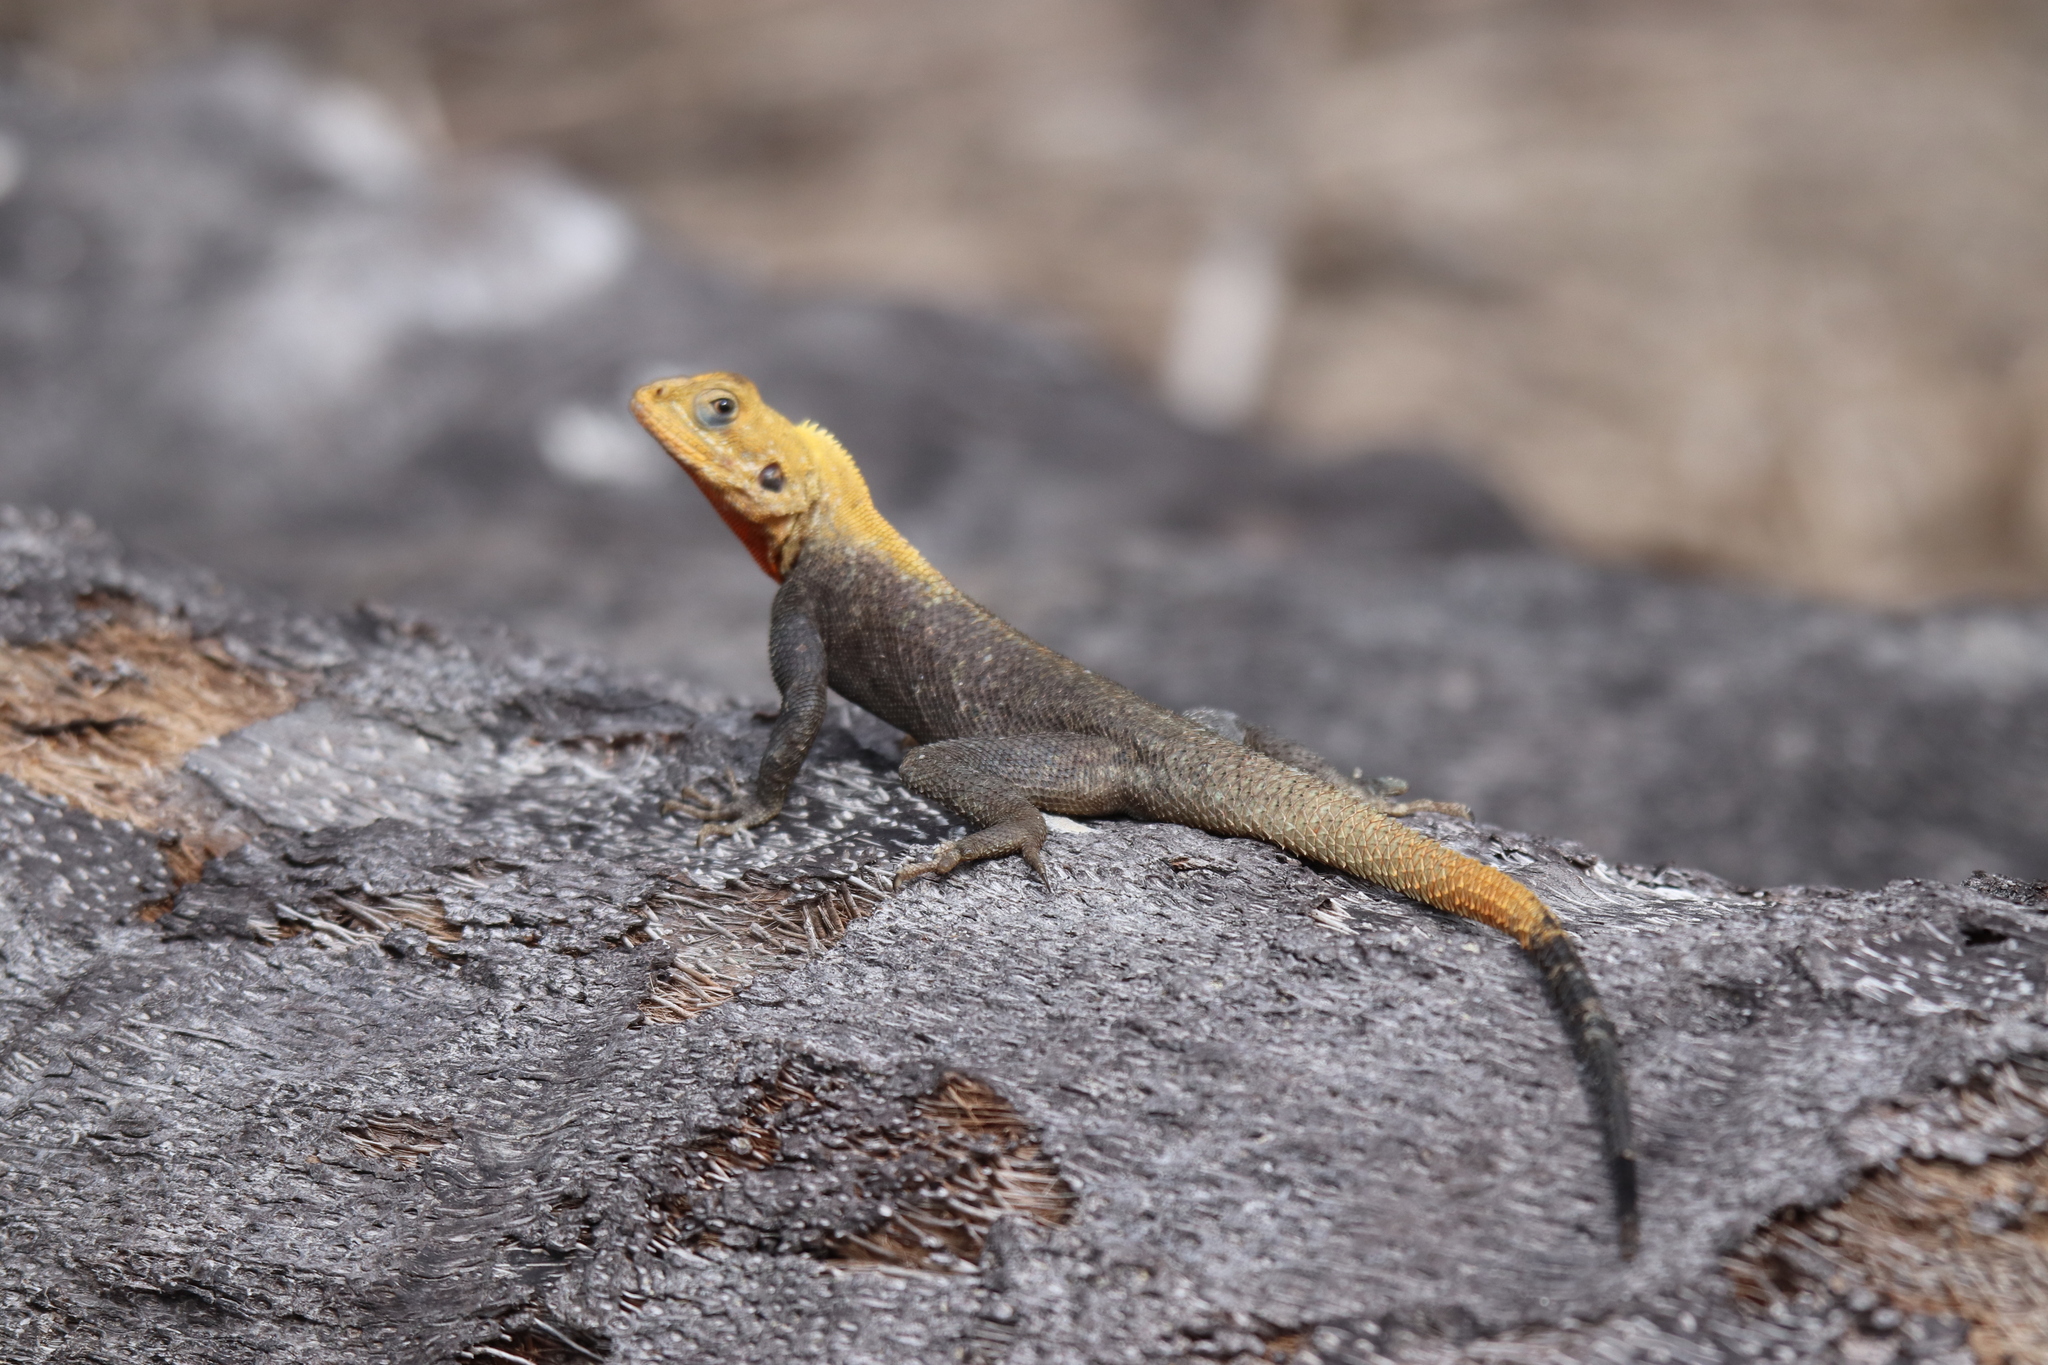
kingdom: Animalia
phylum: Chordata
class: Squamata
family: Agamidae
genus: Agama
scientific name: Agama picticauda
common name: Red-headed agama
